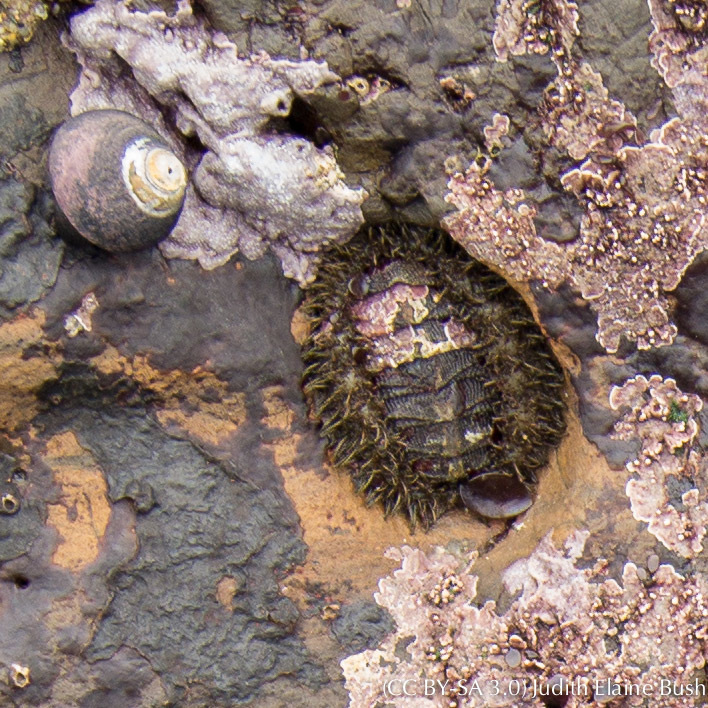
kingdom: Animalia
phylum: Mollusca
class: Polyplacophora
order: Chitonida
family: Mopaliidae
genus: Mopalia
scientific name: Mopalia muscosa
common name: Mossy chiton
